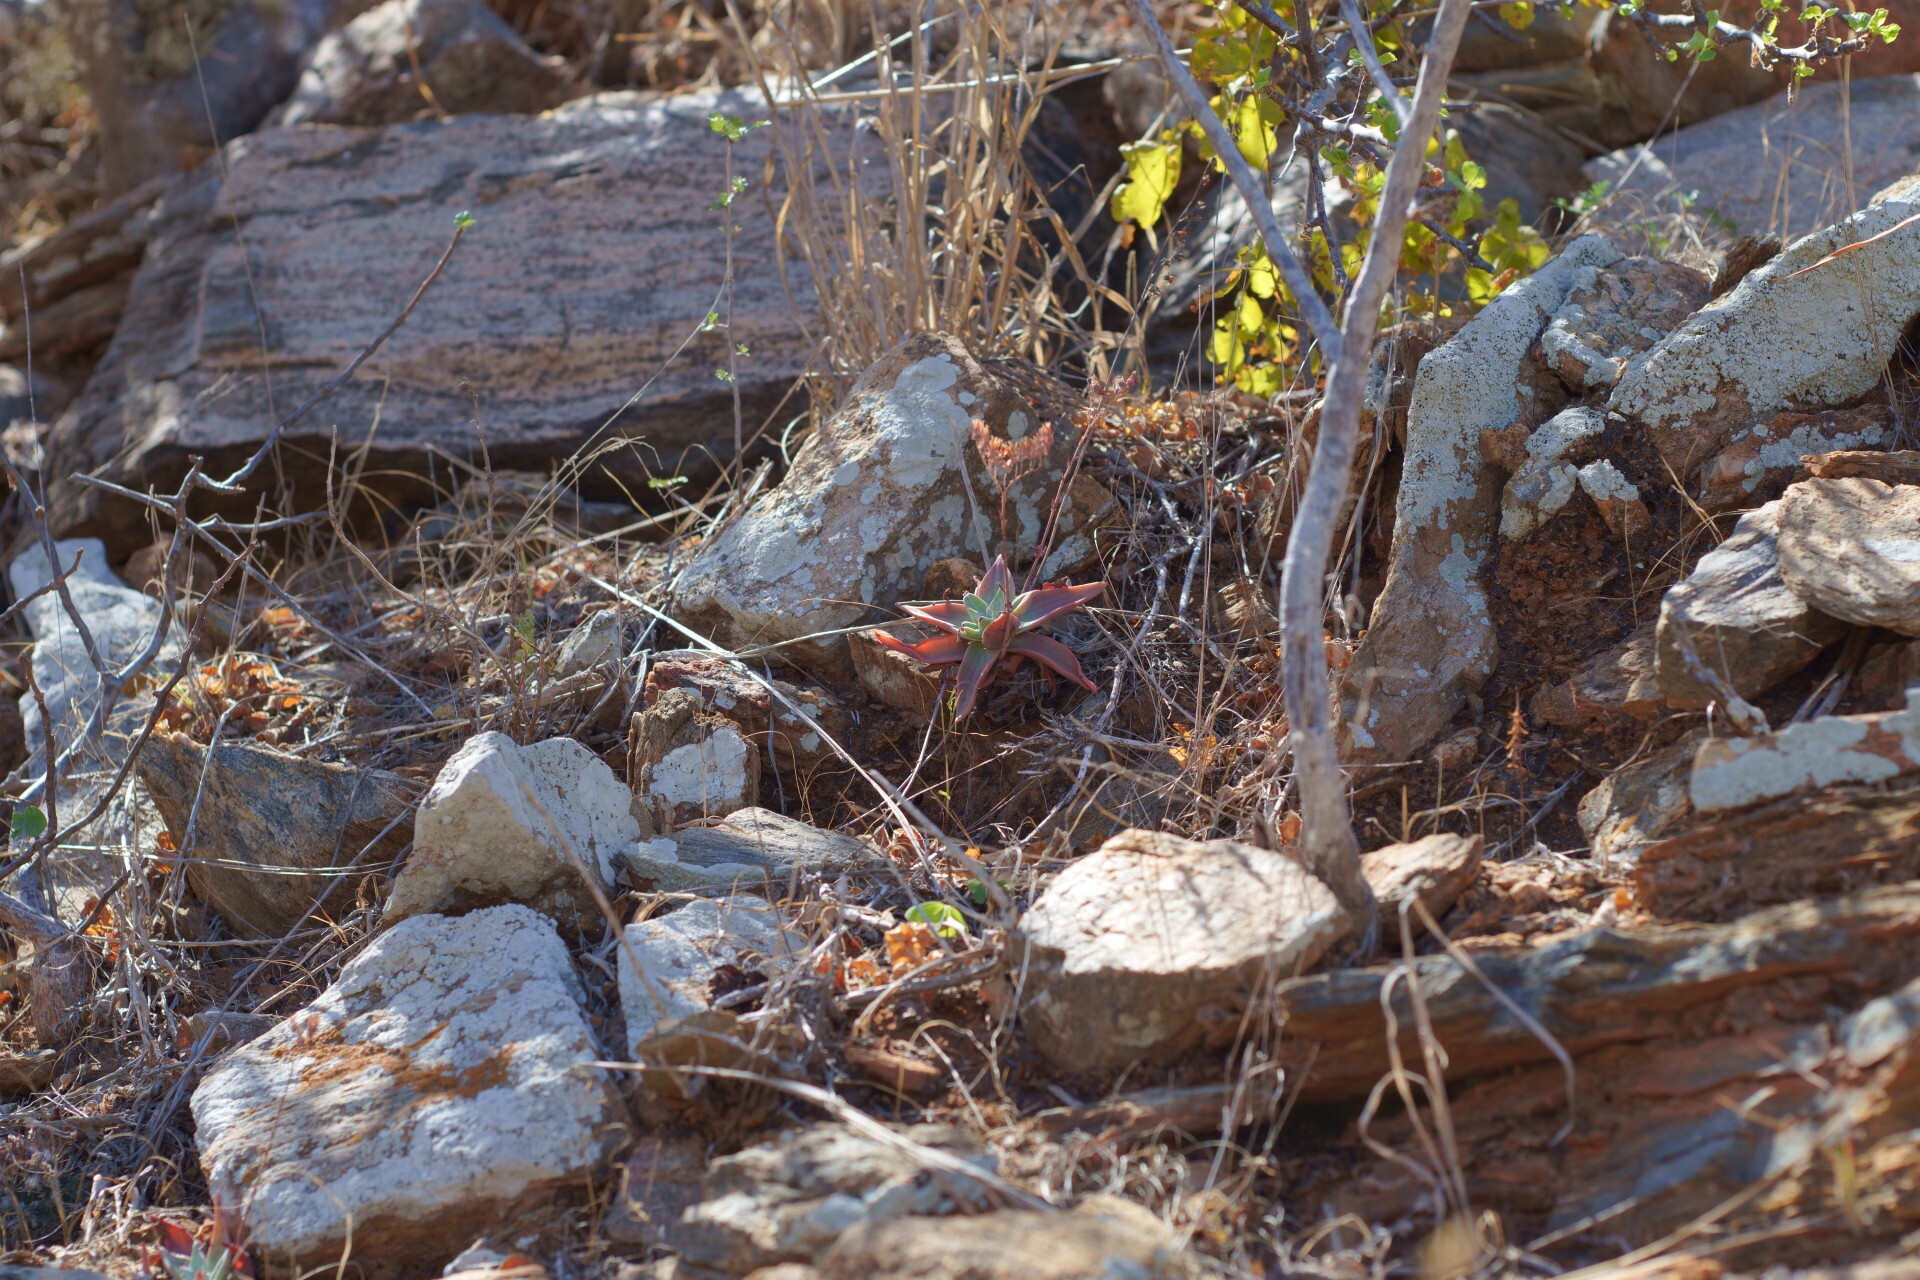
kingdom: Plantae
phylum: Tracheophyta
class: Magnoliopsida
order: Saxifragales
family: Crassulaceae
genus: Dudleya
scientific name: Dudleya nubigena
